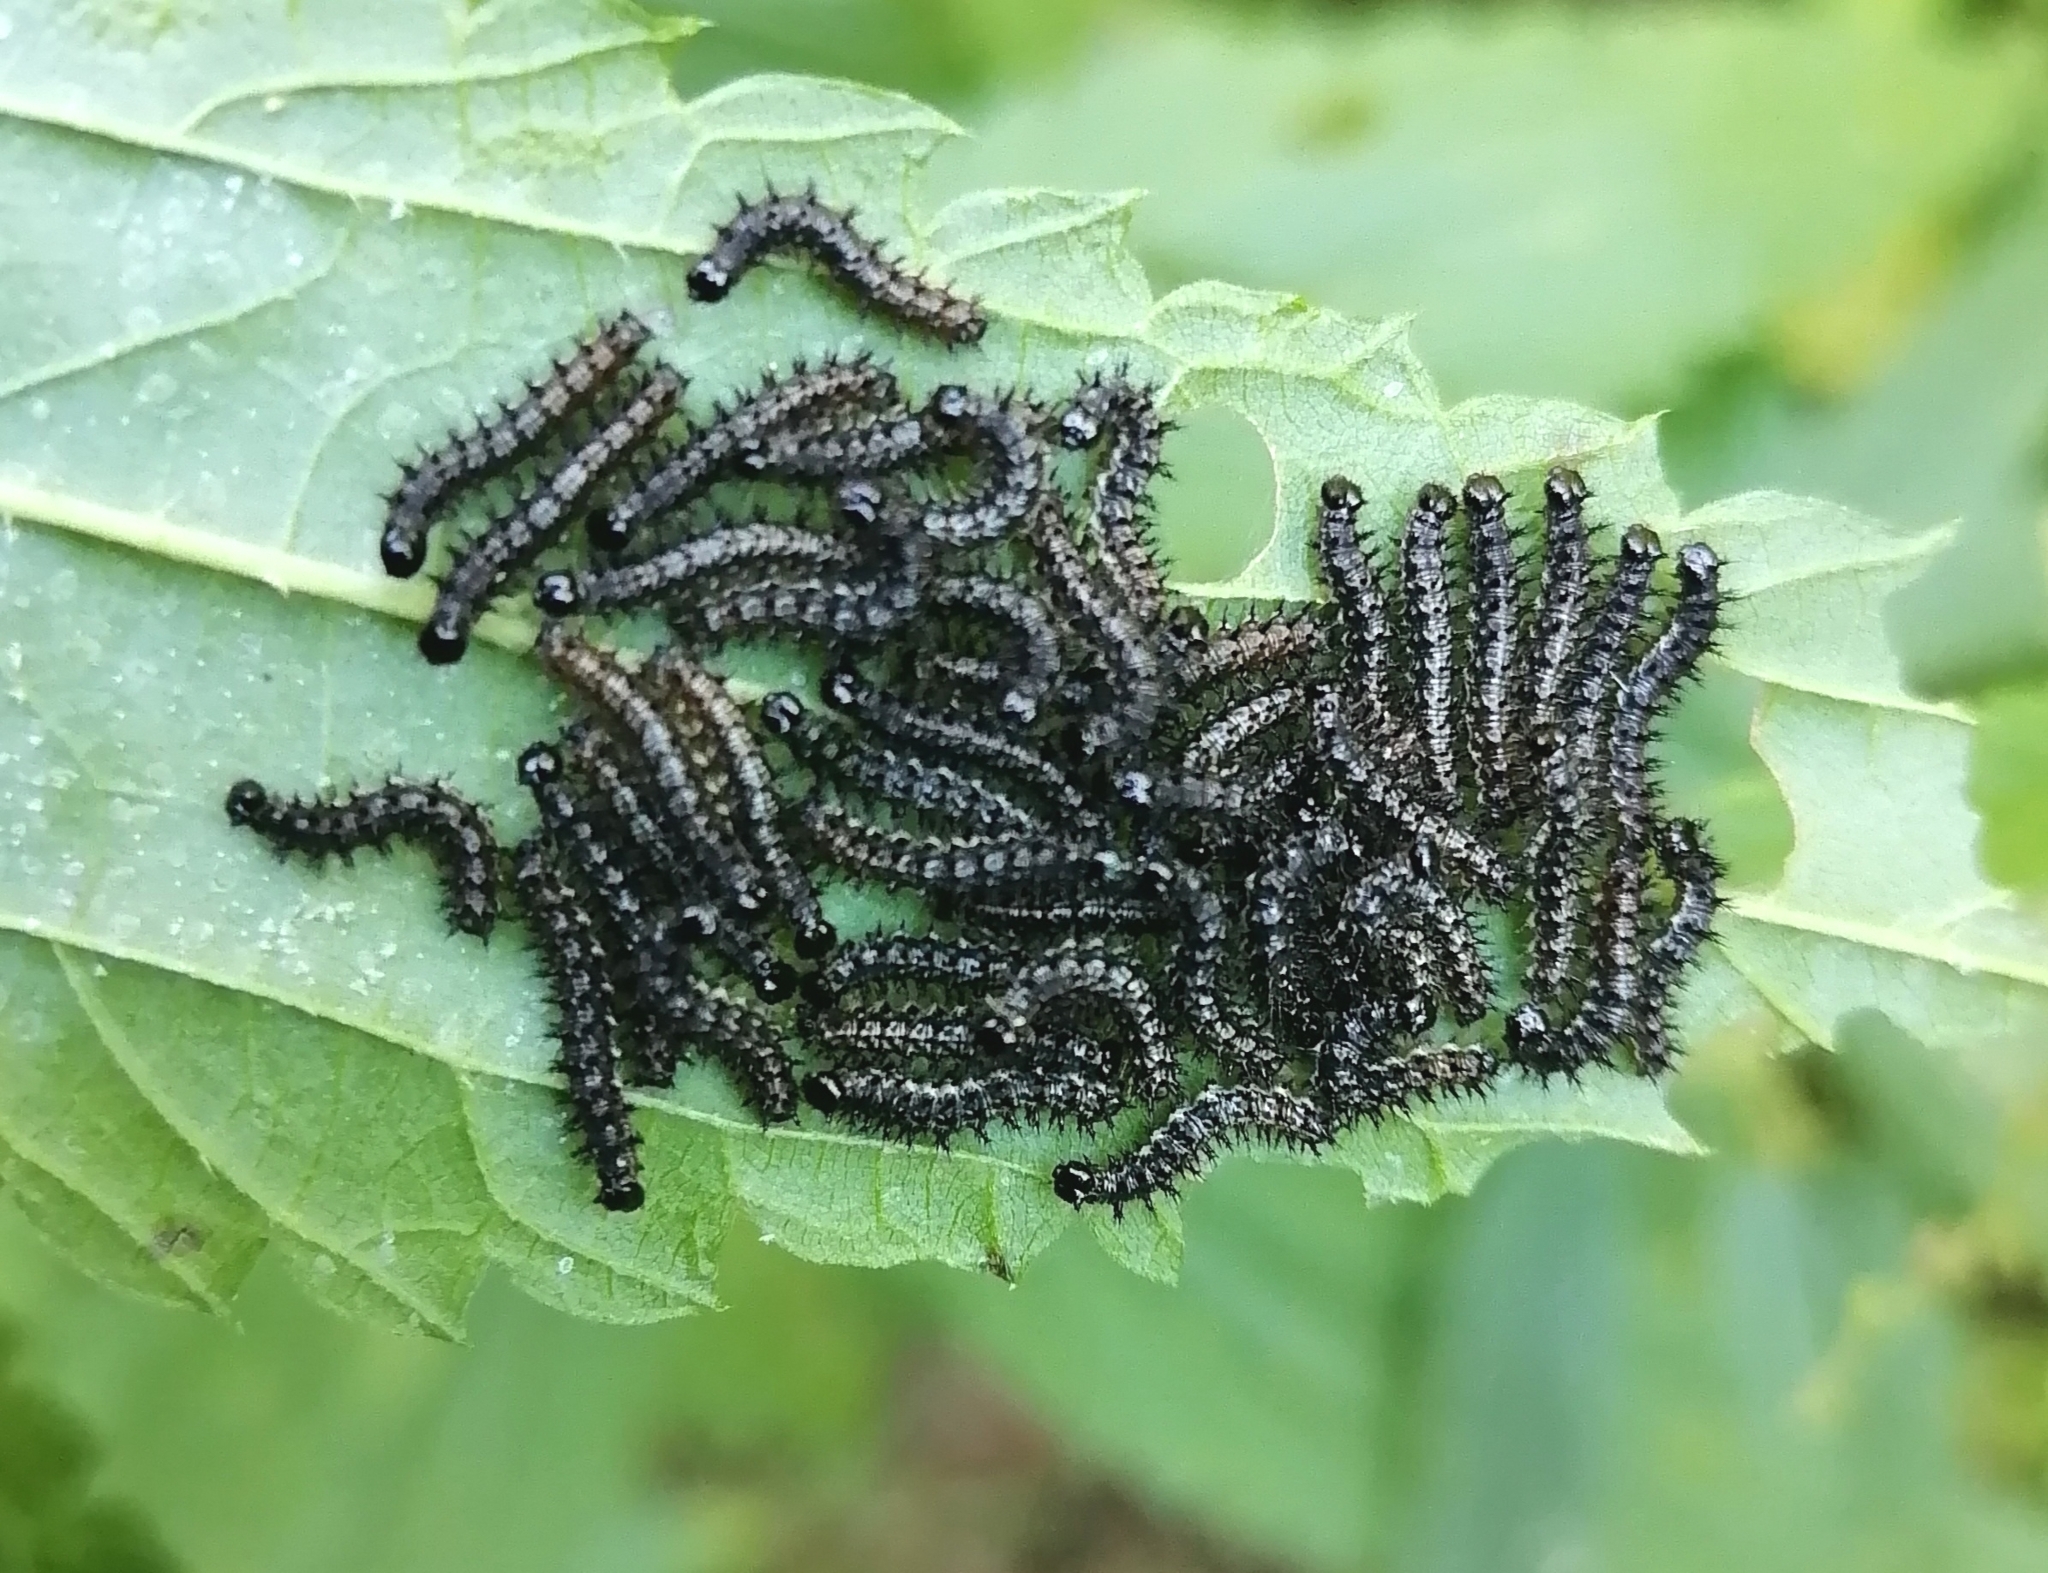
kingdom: Animalia
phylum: Arthropoda
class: Insecta
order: Lepidoptera
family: Nymphalidae
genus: Araschnia
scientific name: Araschnia levana
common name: Map butterfly
